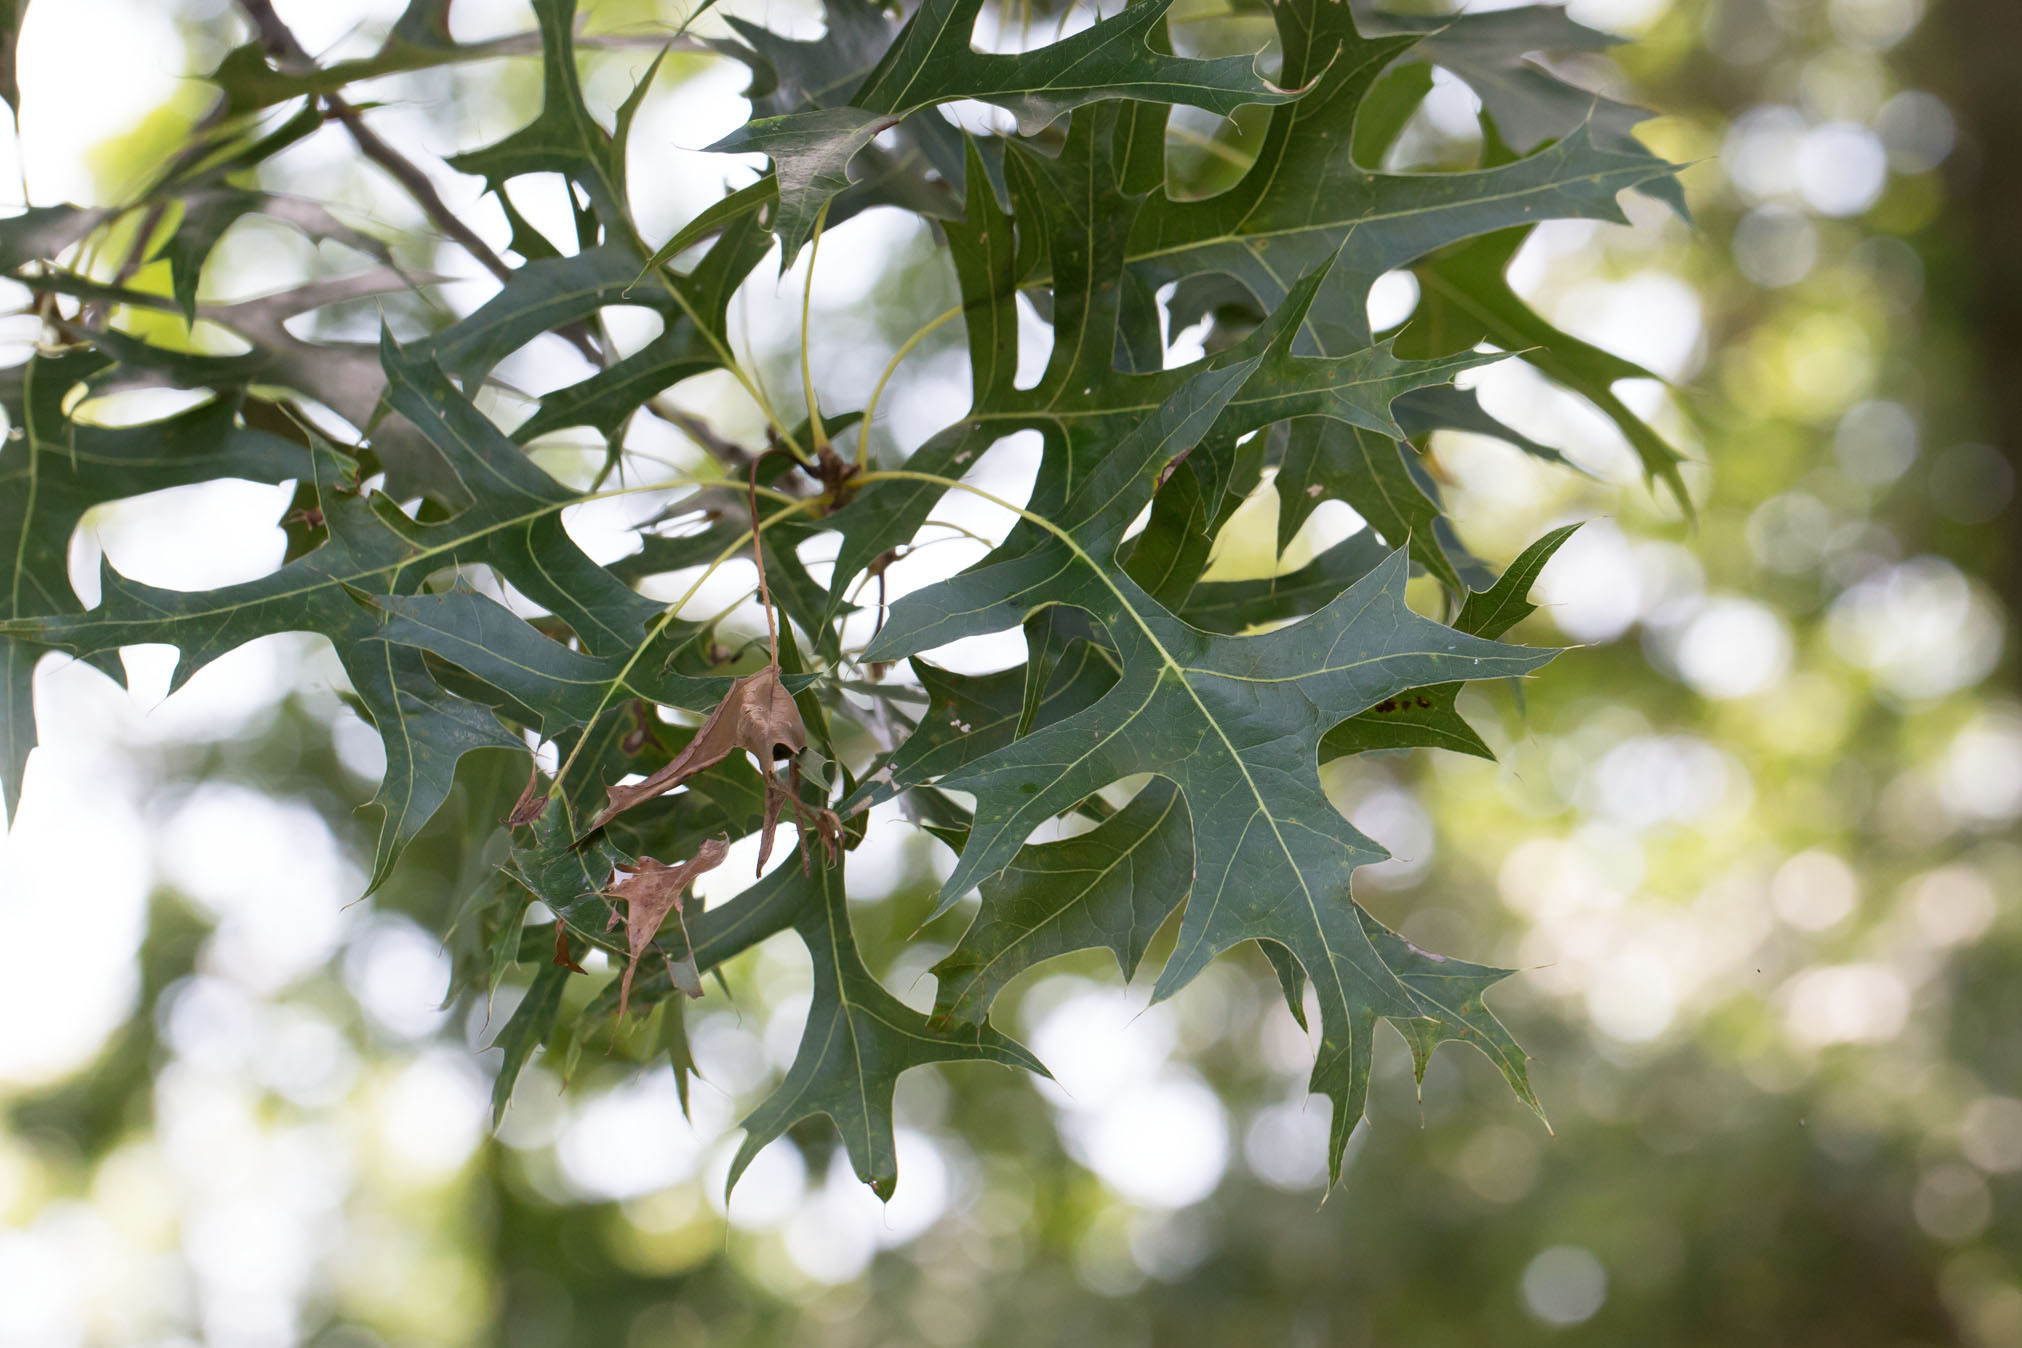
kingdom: Plantae
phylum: Tracheophyta
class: Magnoliopsida
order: Fagales
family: Fagaceae
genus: Quercus
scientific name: Quercus palustris
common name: Pin oak
